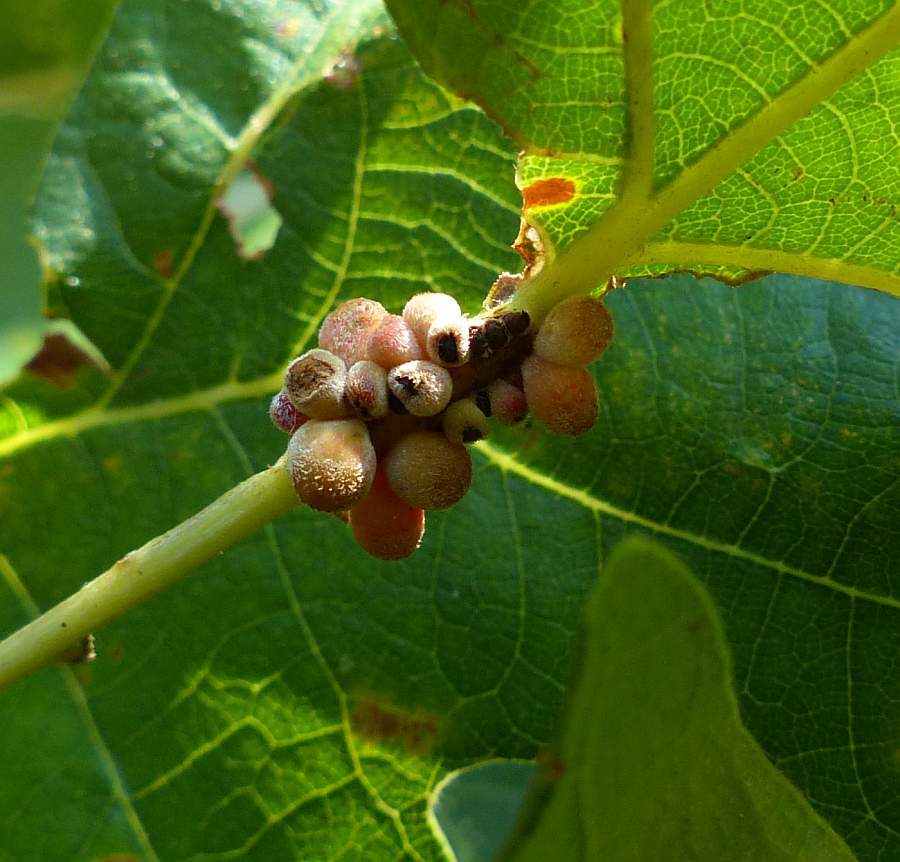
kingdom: Animalia
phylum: Arthropoda
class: Insecta
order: Hymenoptera
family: Cynipidae
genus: Andricus
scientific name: Andricus
